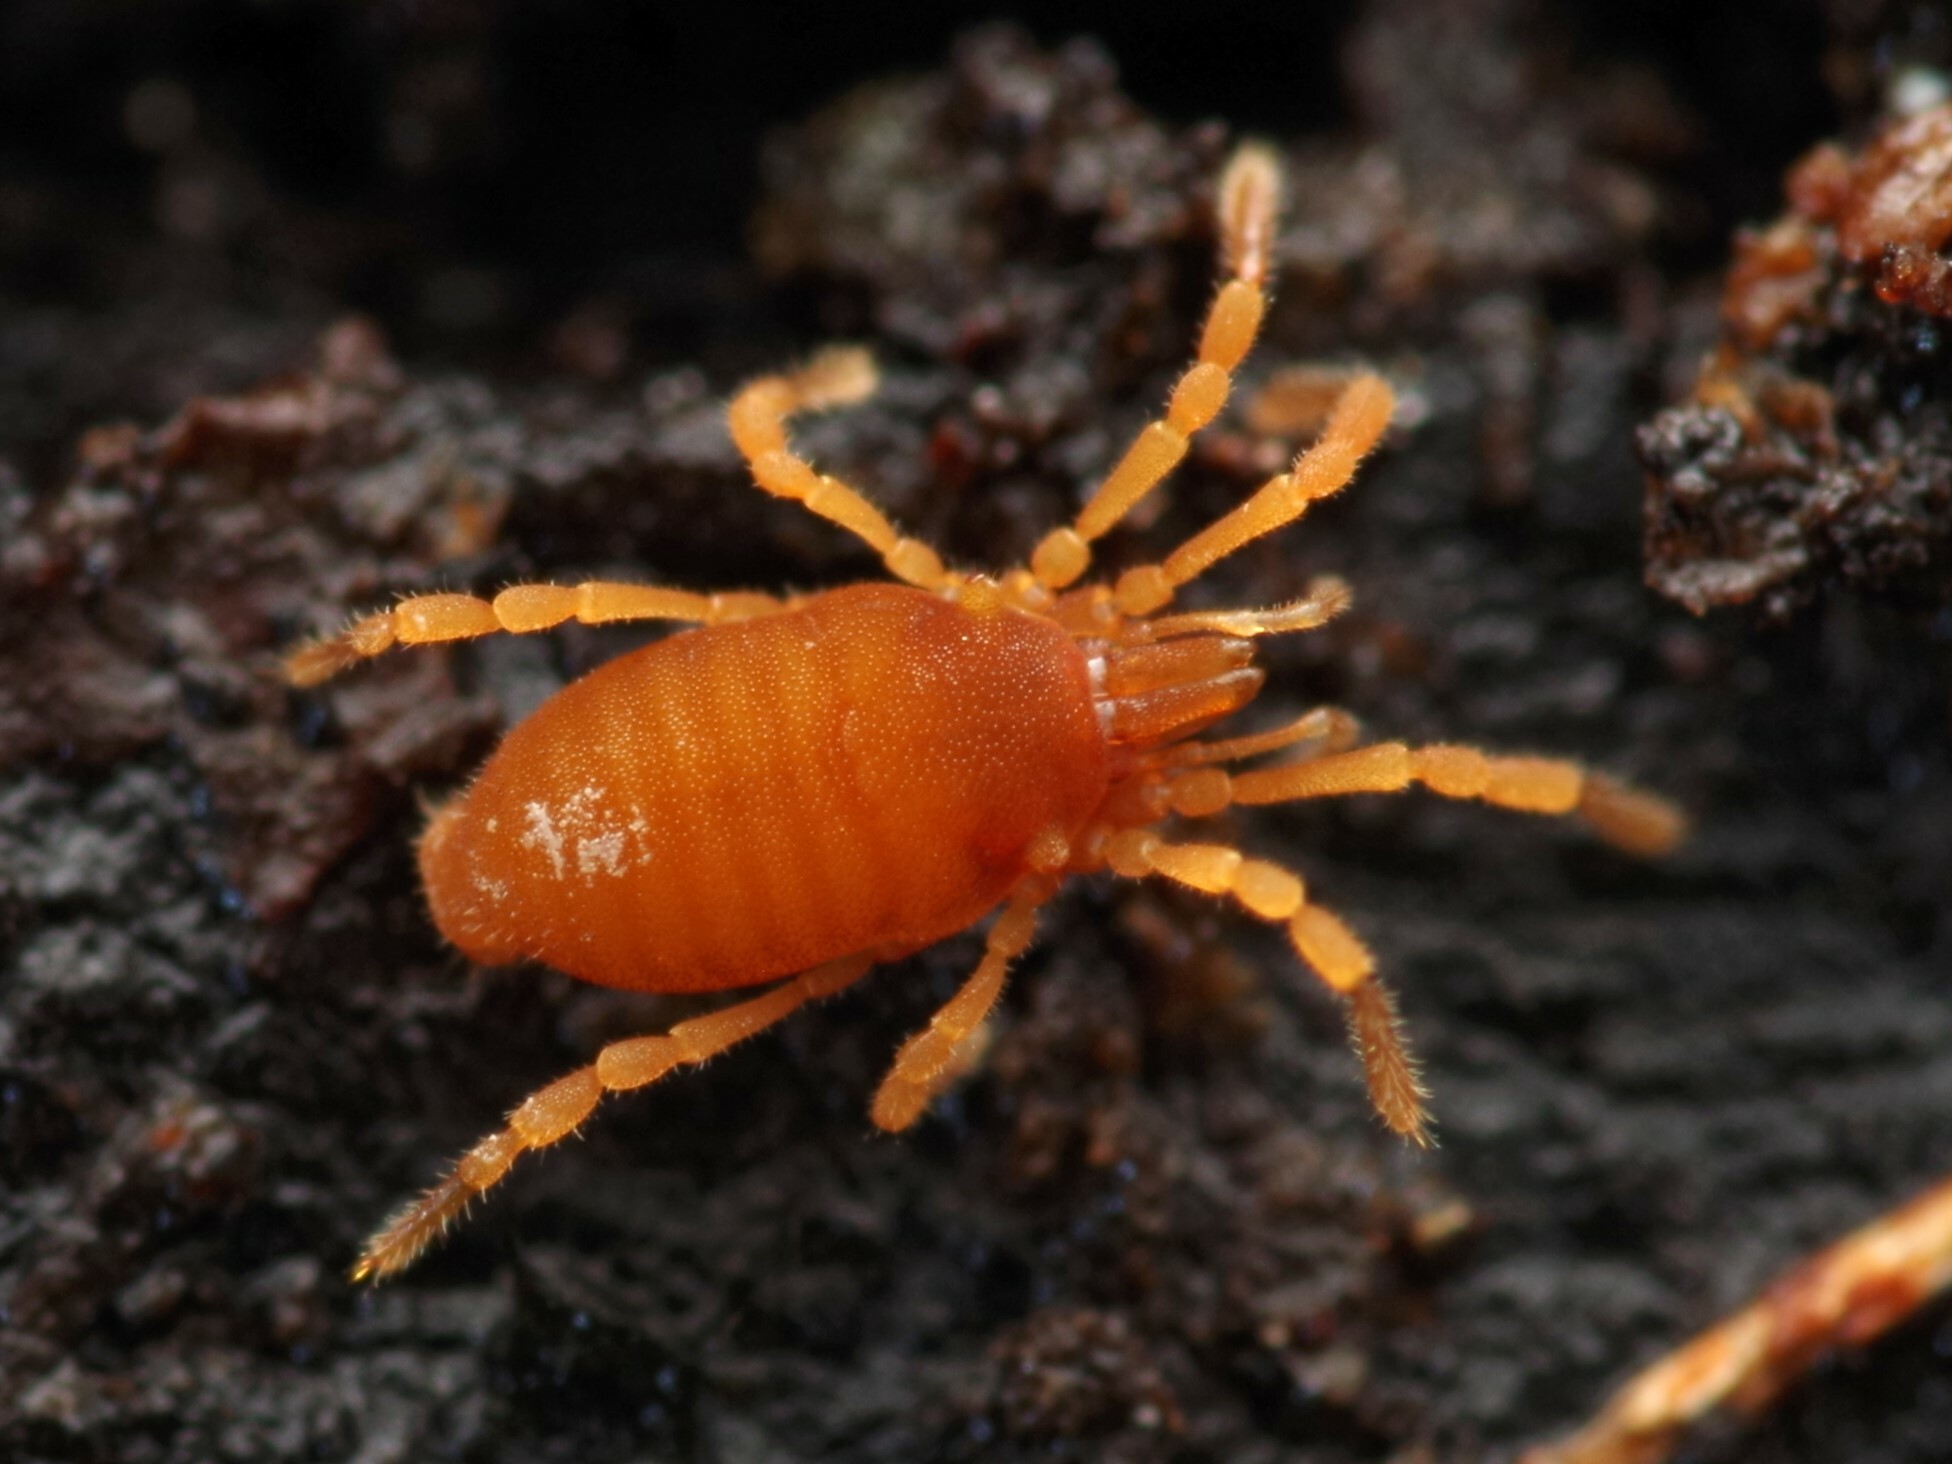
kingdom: Animalia
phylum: Arthropoda
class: Arachnida
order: Opiliones
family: Sironidae
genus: Siro
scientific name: Siro rubens
